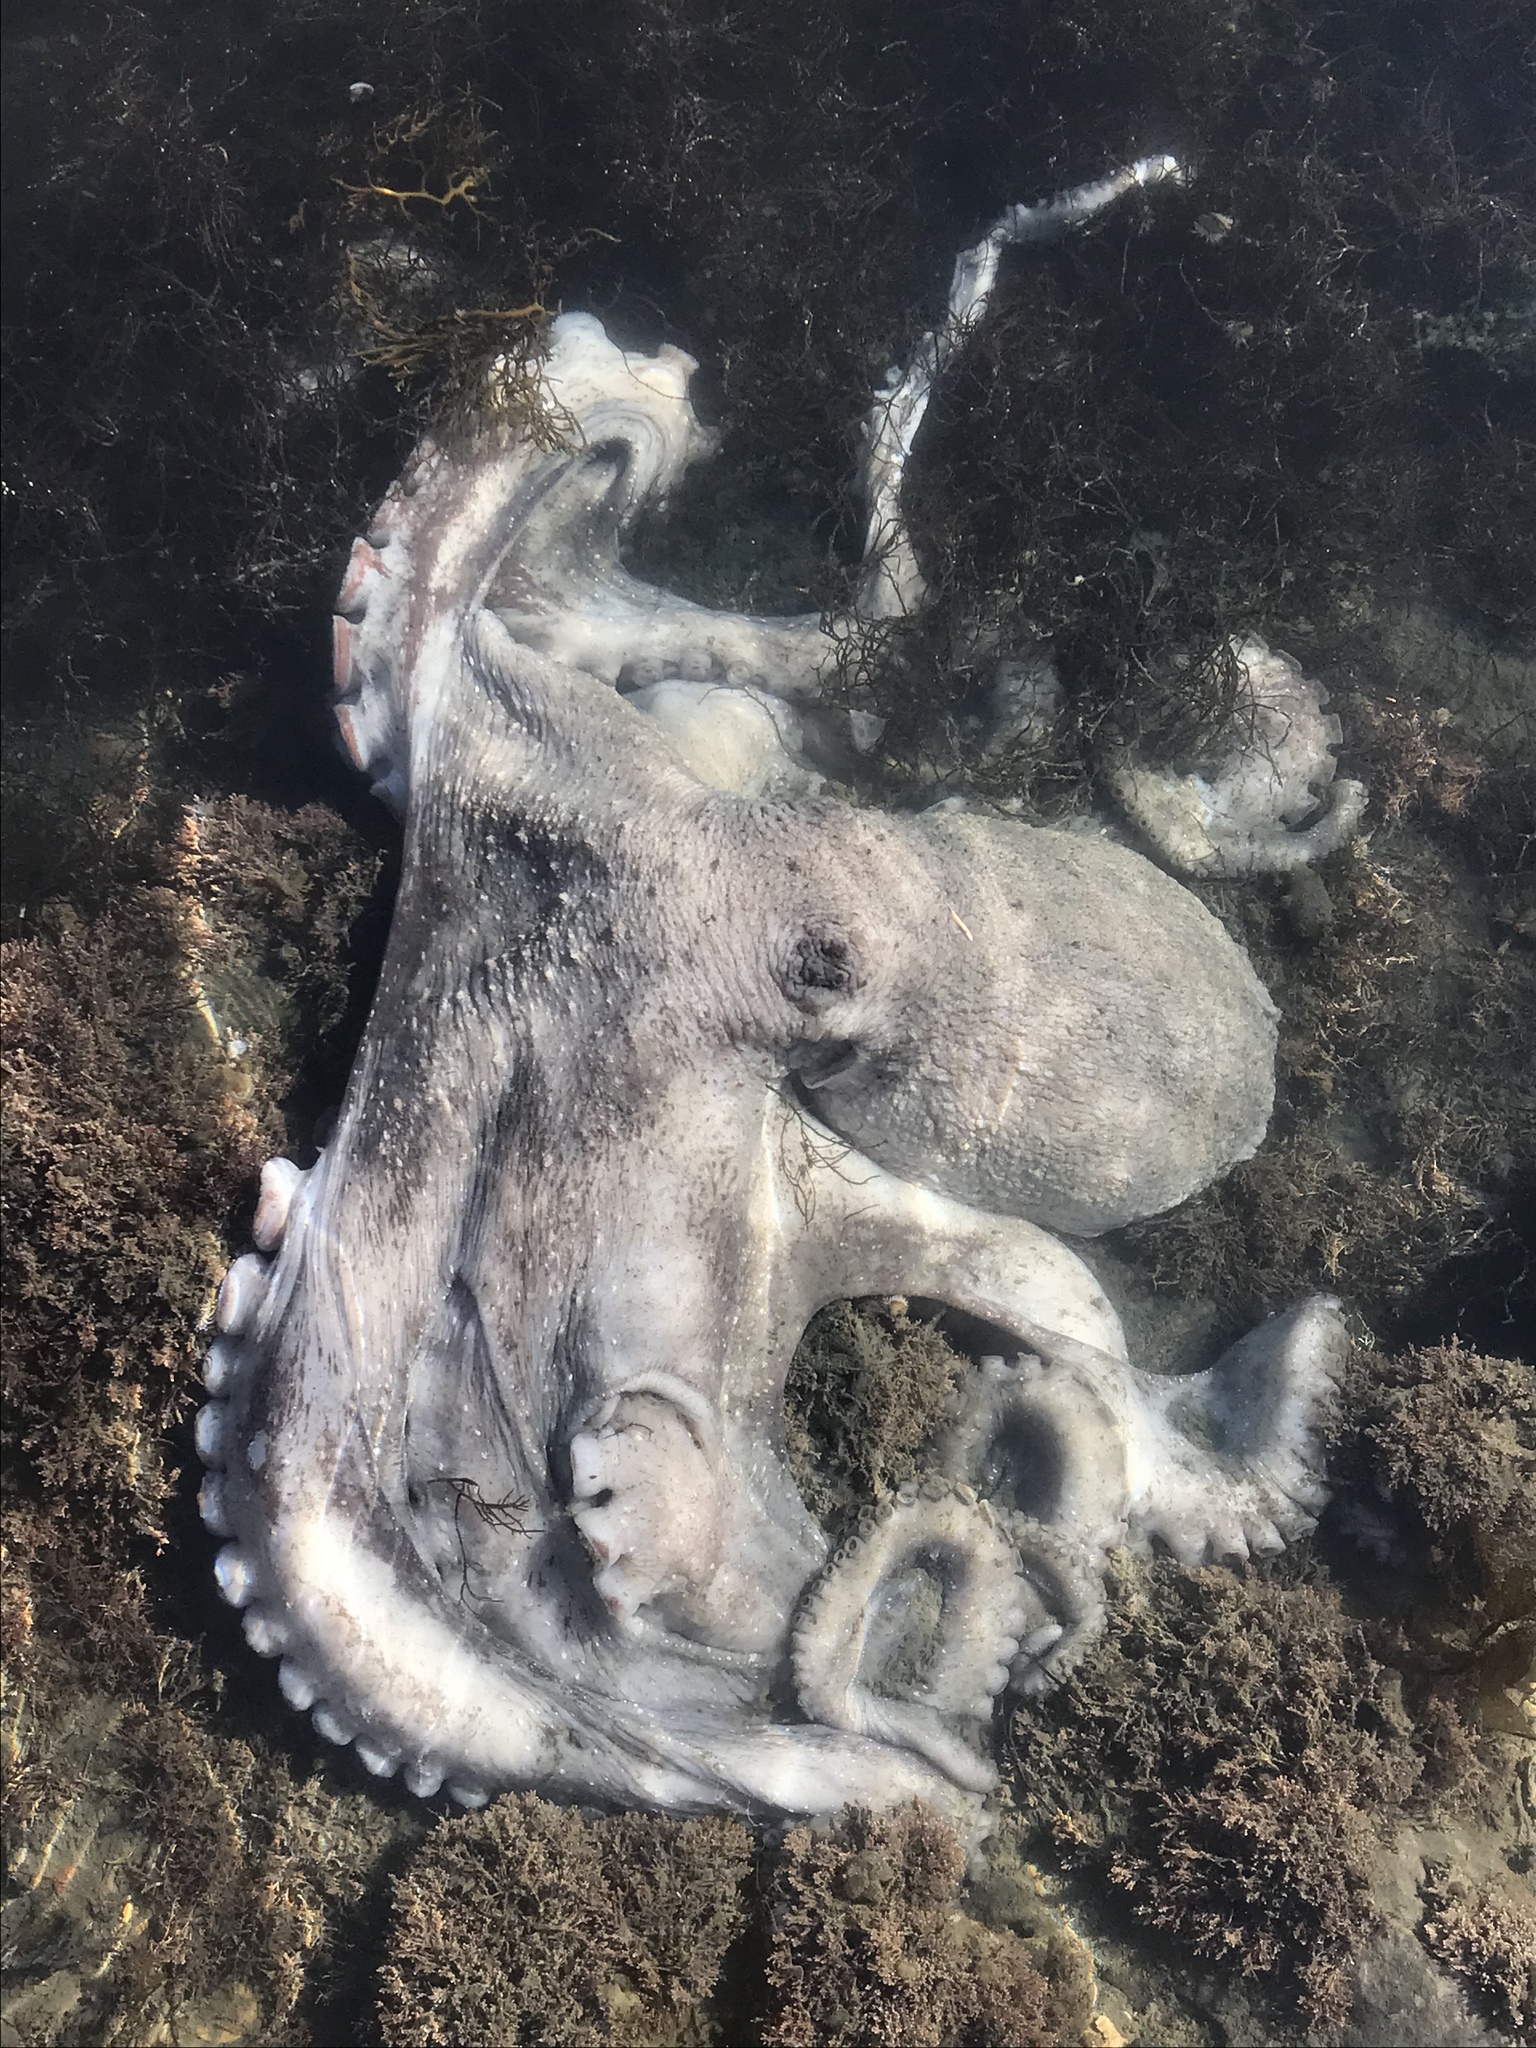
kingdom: Animalia
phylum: Mollusca
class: Cephalopoda
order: Octopoda
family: Octopodidae
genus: Macroctopus
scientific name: Macroctopus maorum
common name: Maori octopus
